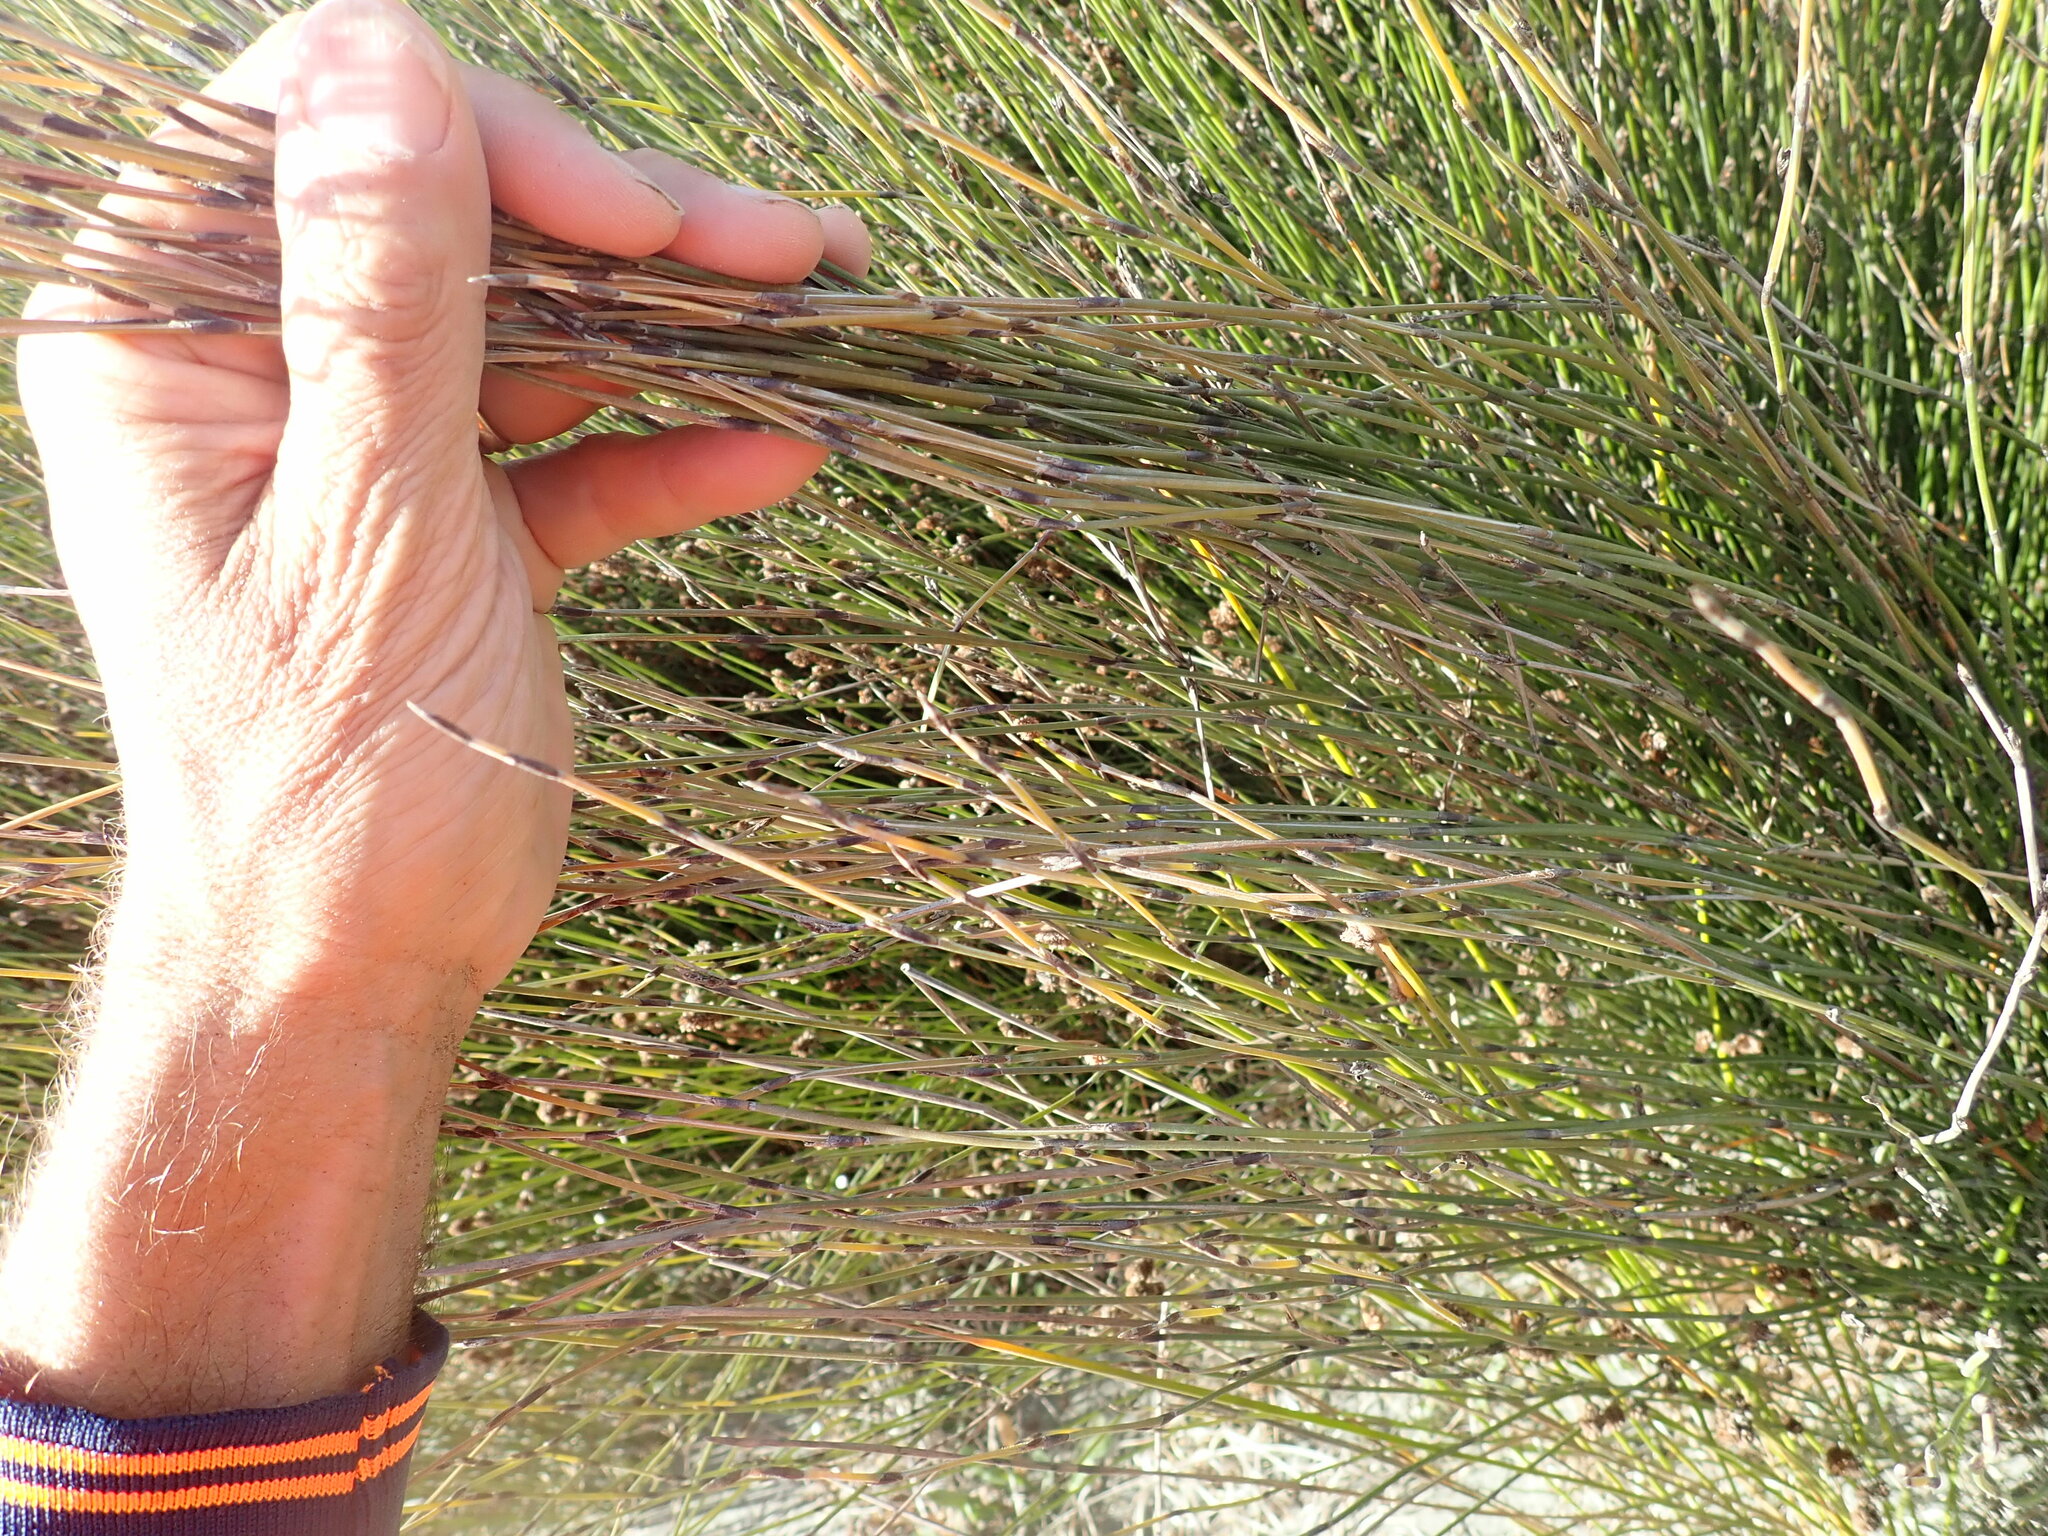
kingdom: Plantae
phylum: Tracheophyta
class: Liliopsida
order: Poales
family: Restionaceae
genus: Apodasmia
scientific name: Apodasmia similis
